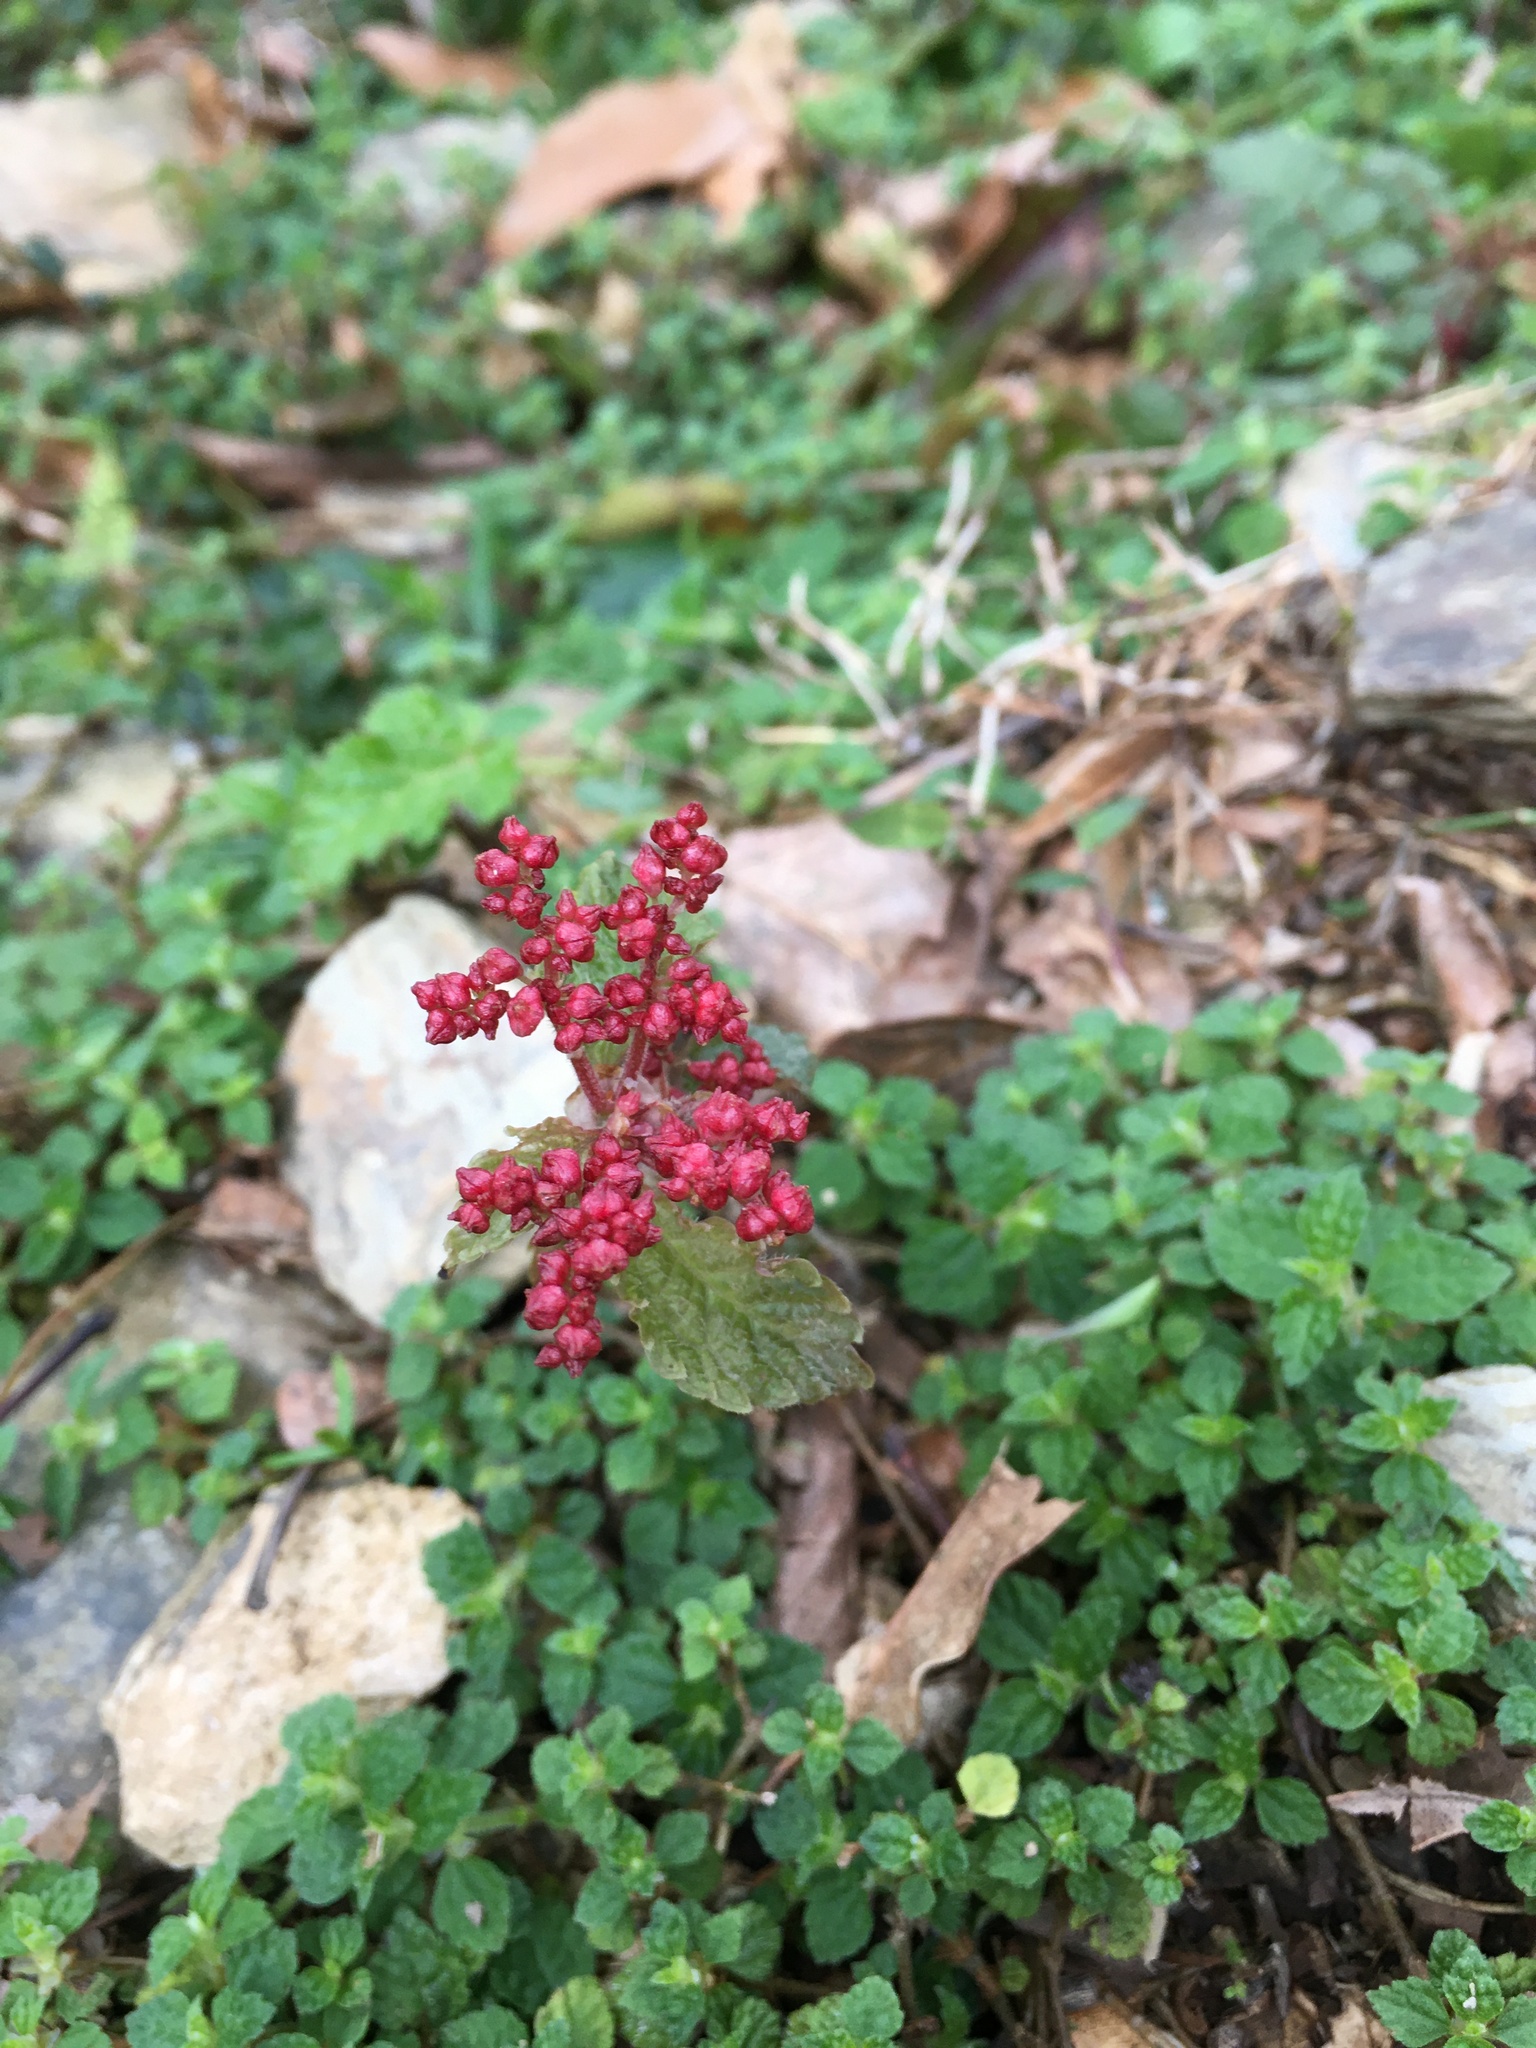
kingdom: Plantae
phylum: Tracheophyta
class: Magnoliopsida
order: Rosales
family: Urticaceae
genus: Pilea
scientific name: Pilea brevicornuta
